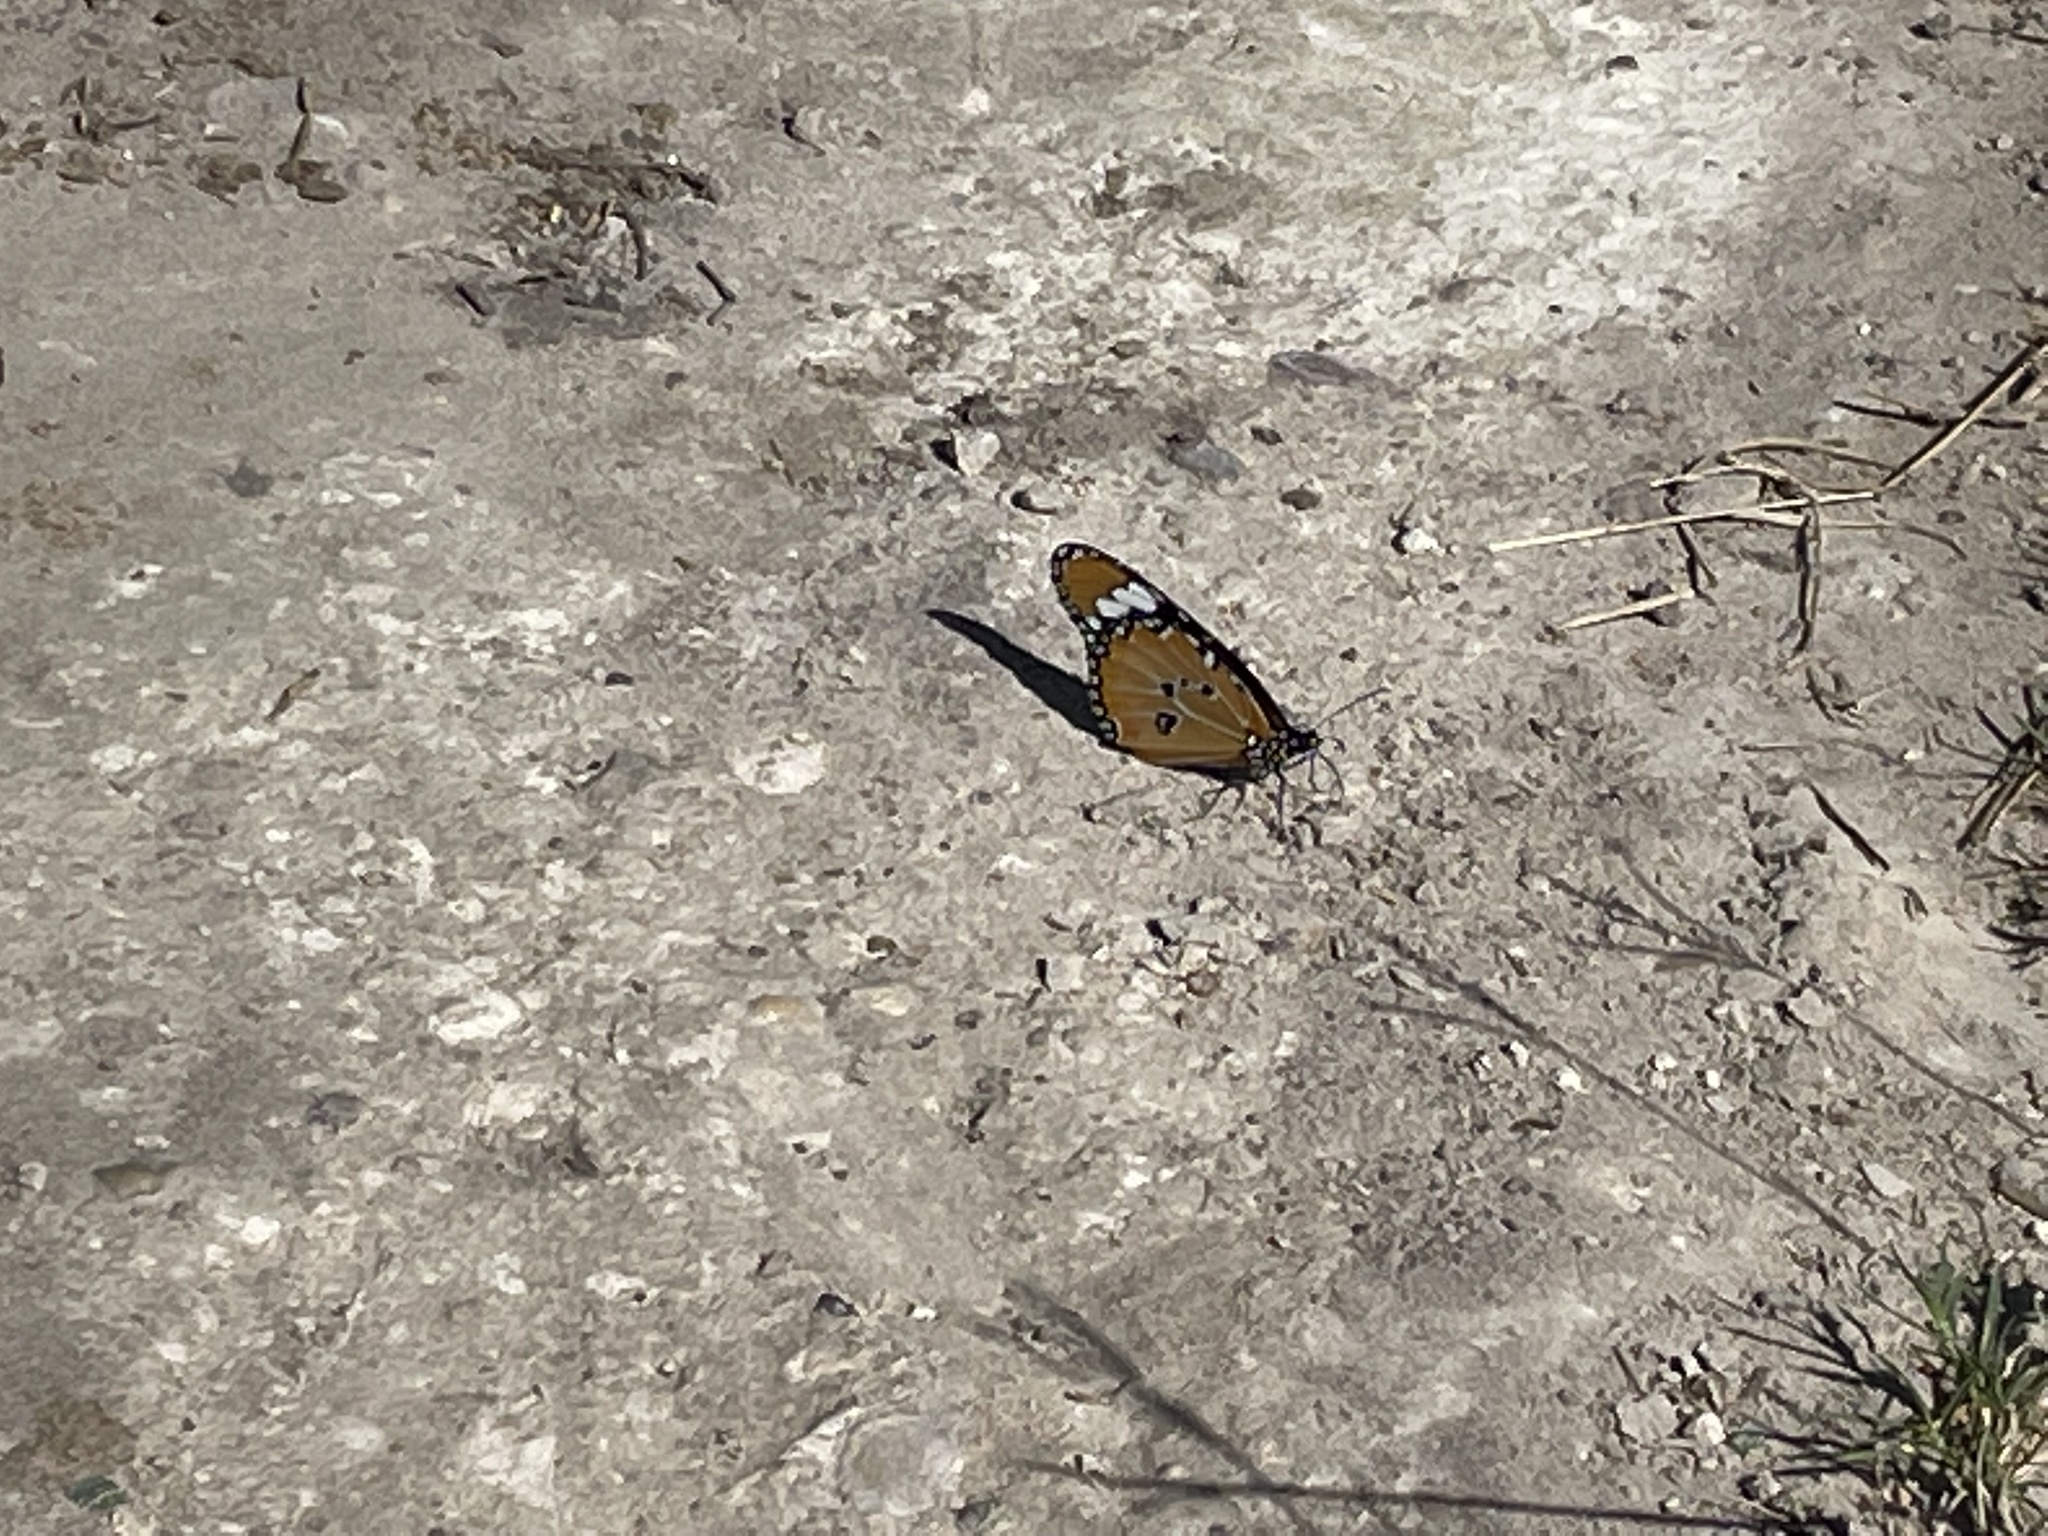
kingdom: Animalia
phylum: Arthropoda
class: Insecta
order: Lepidoptera
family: Nymphalidae
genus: Danaus
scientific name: Danaus chrysippus
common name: Plain tiger
